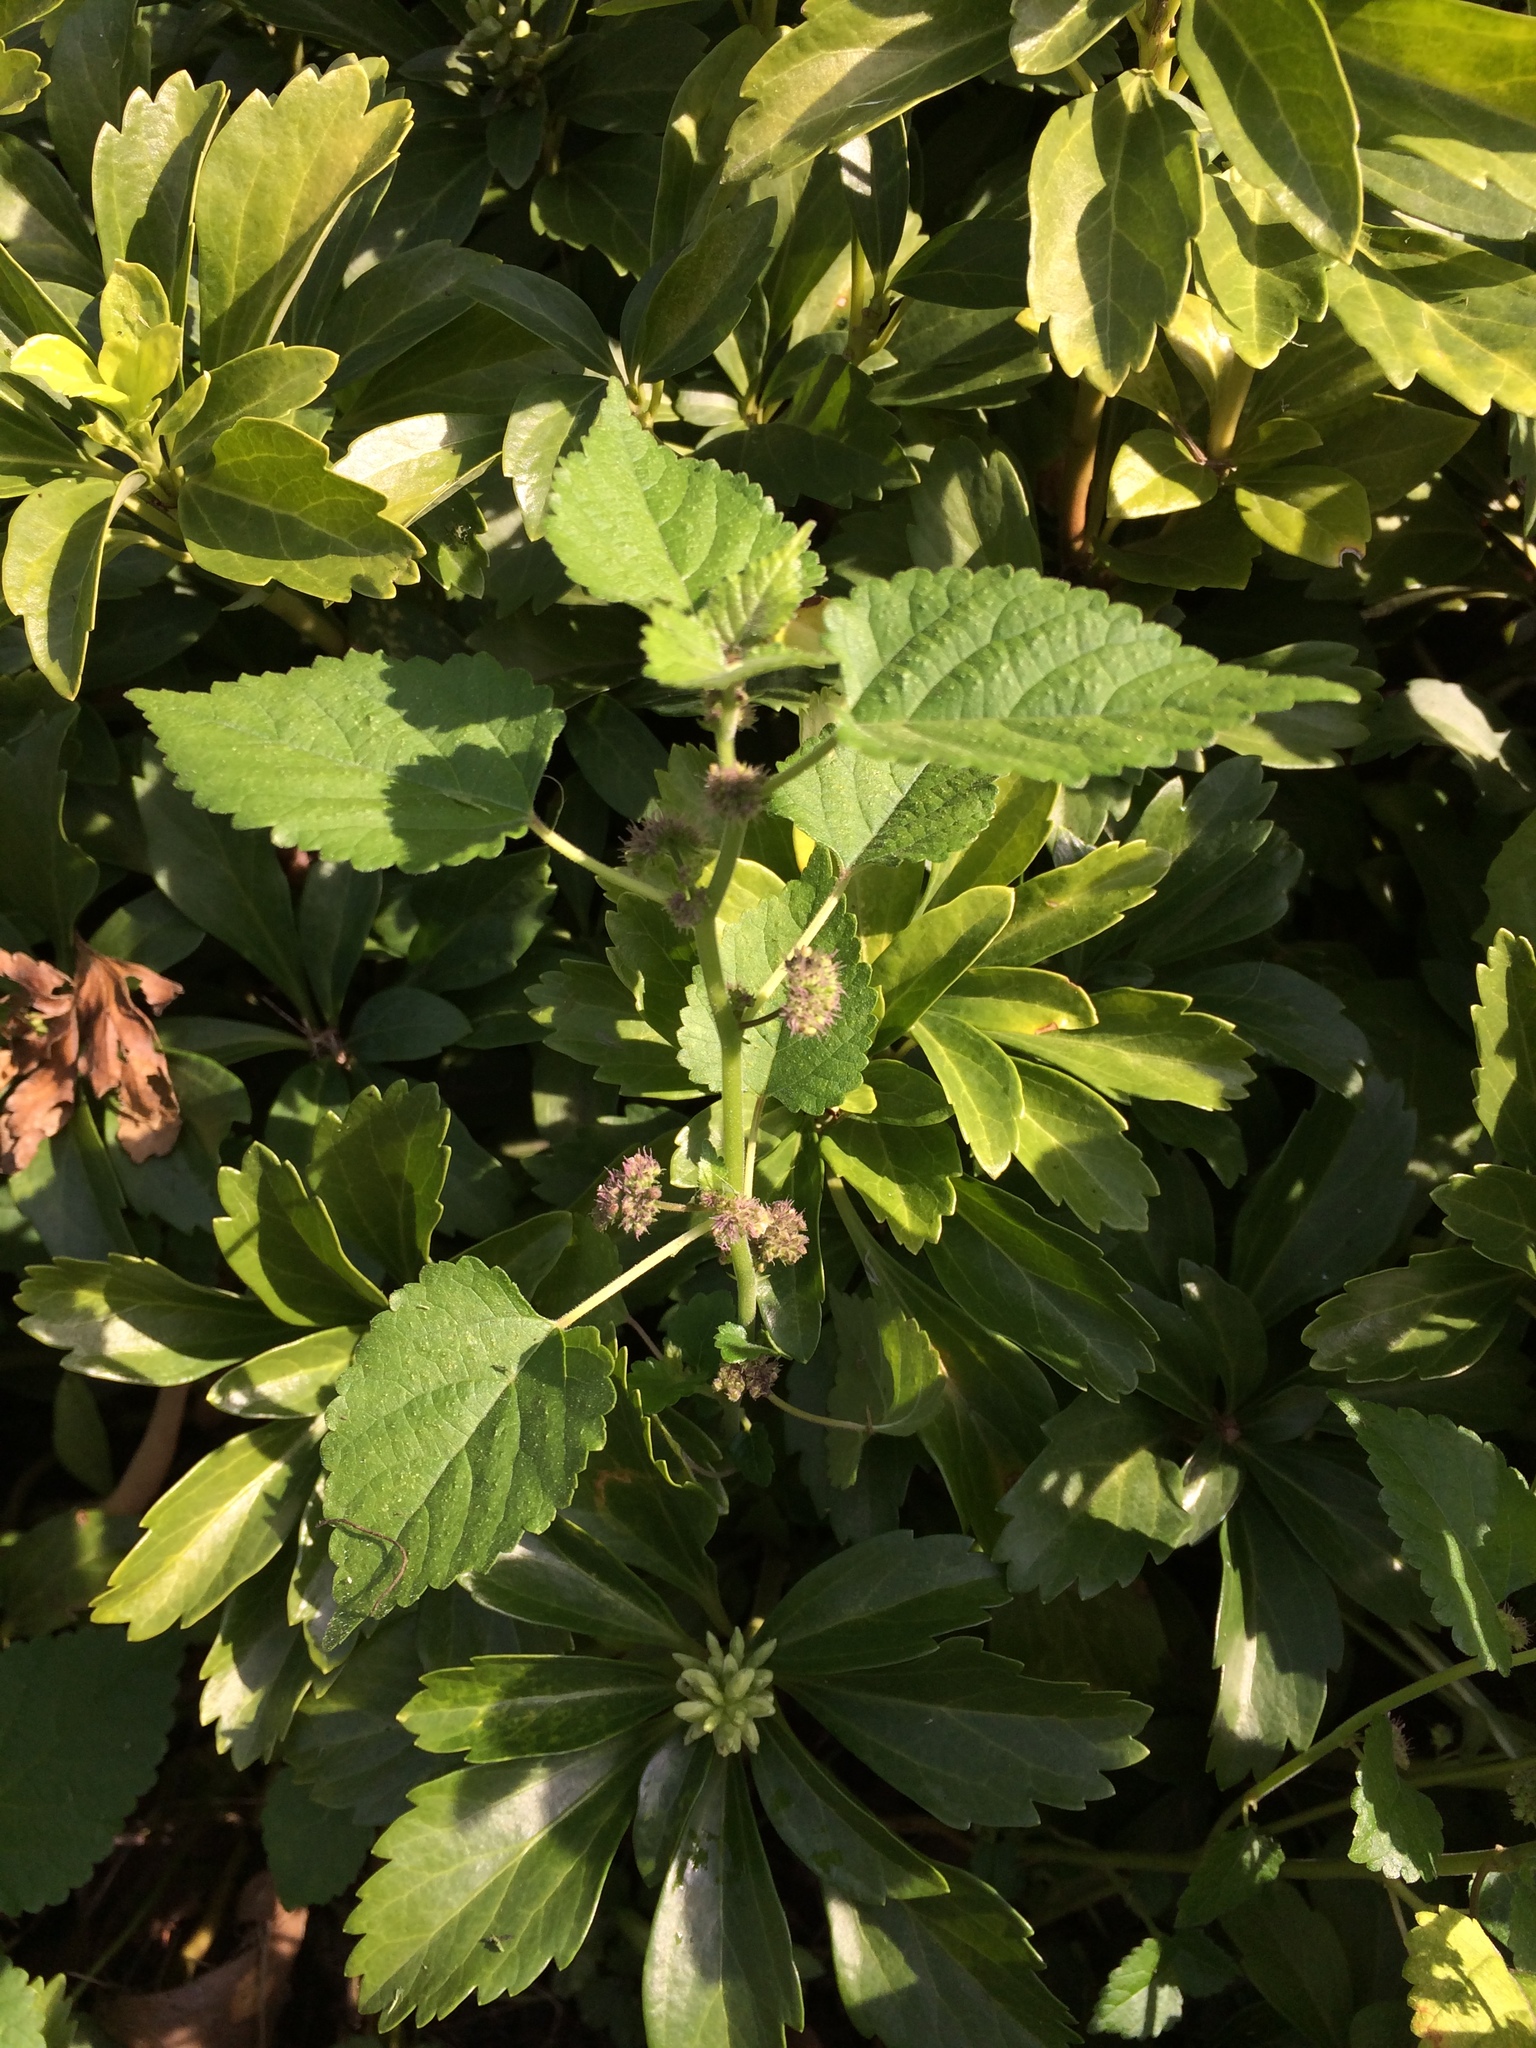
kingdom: Plantae
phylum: Tracheophyta
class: Magnoliopsida
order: Rosales
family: Moraceae
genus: Fatoua
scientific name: Fatoua villosa
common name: Hairy crabweed
